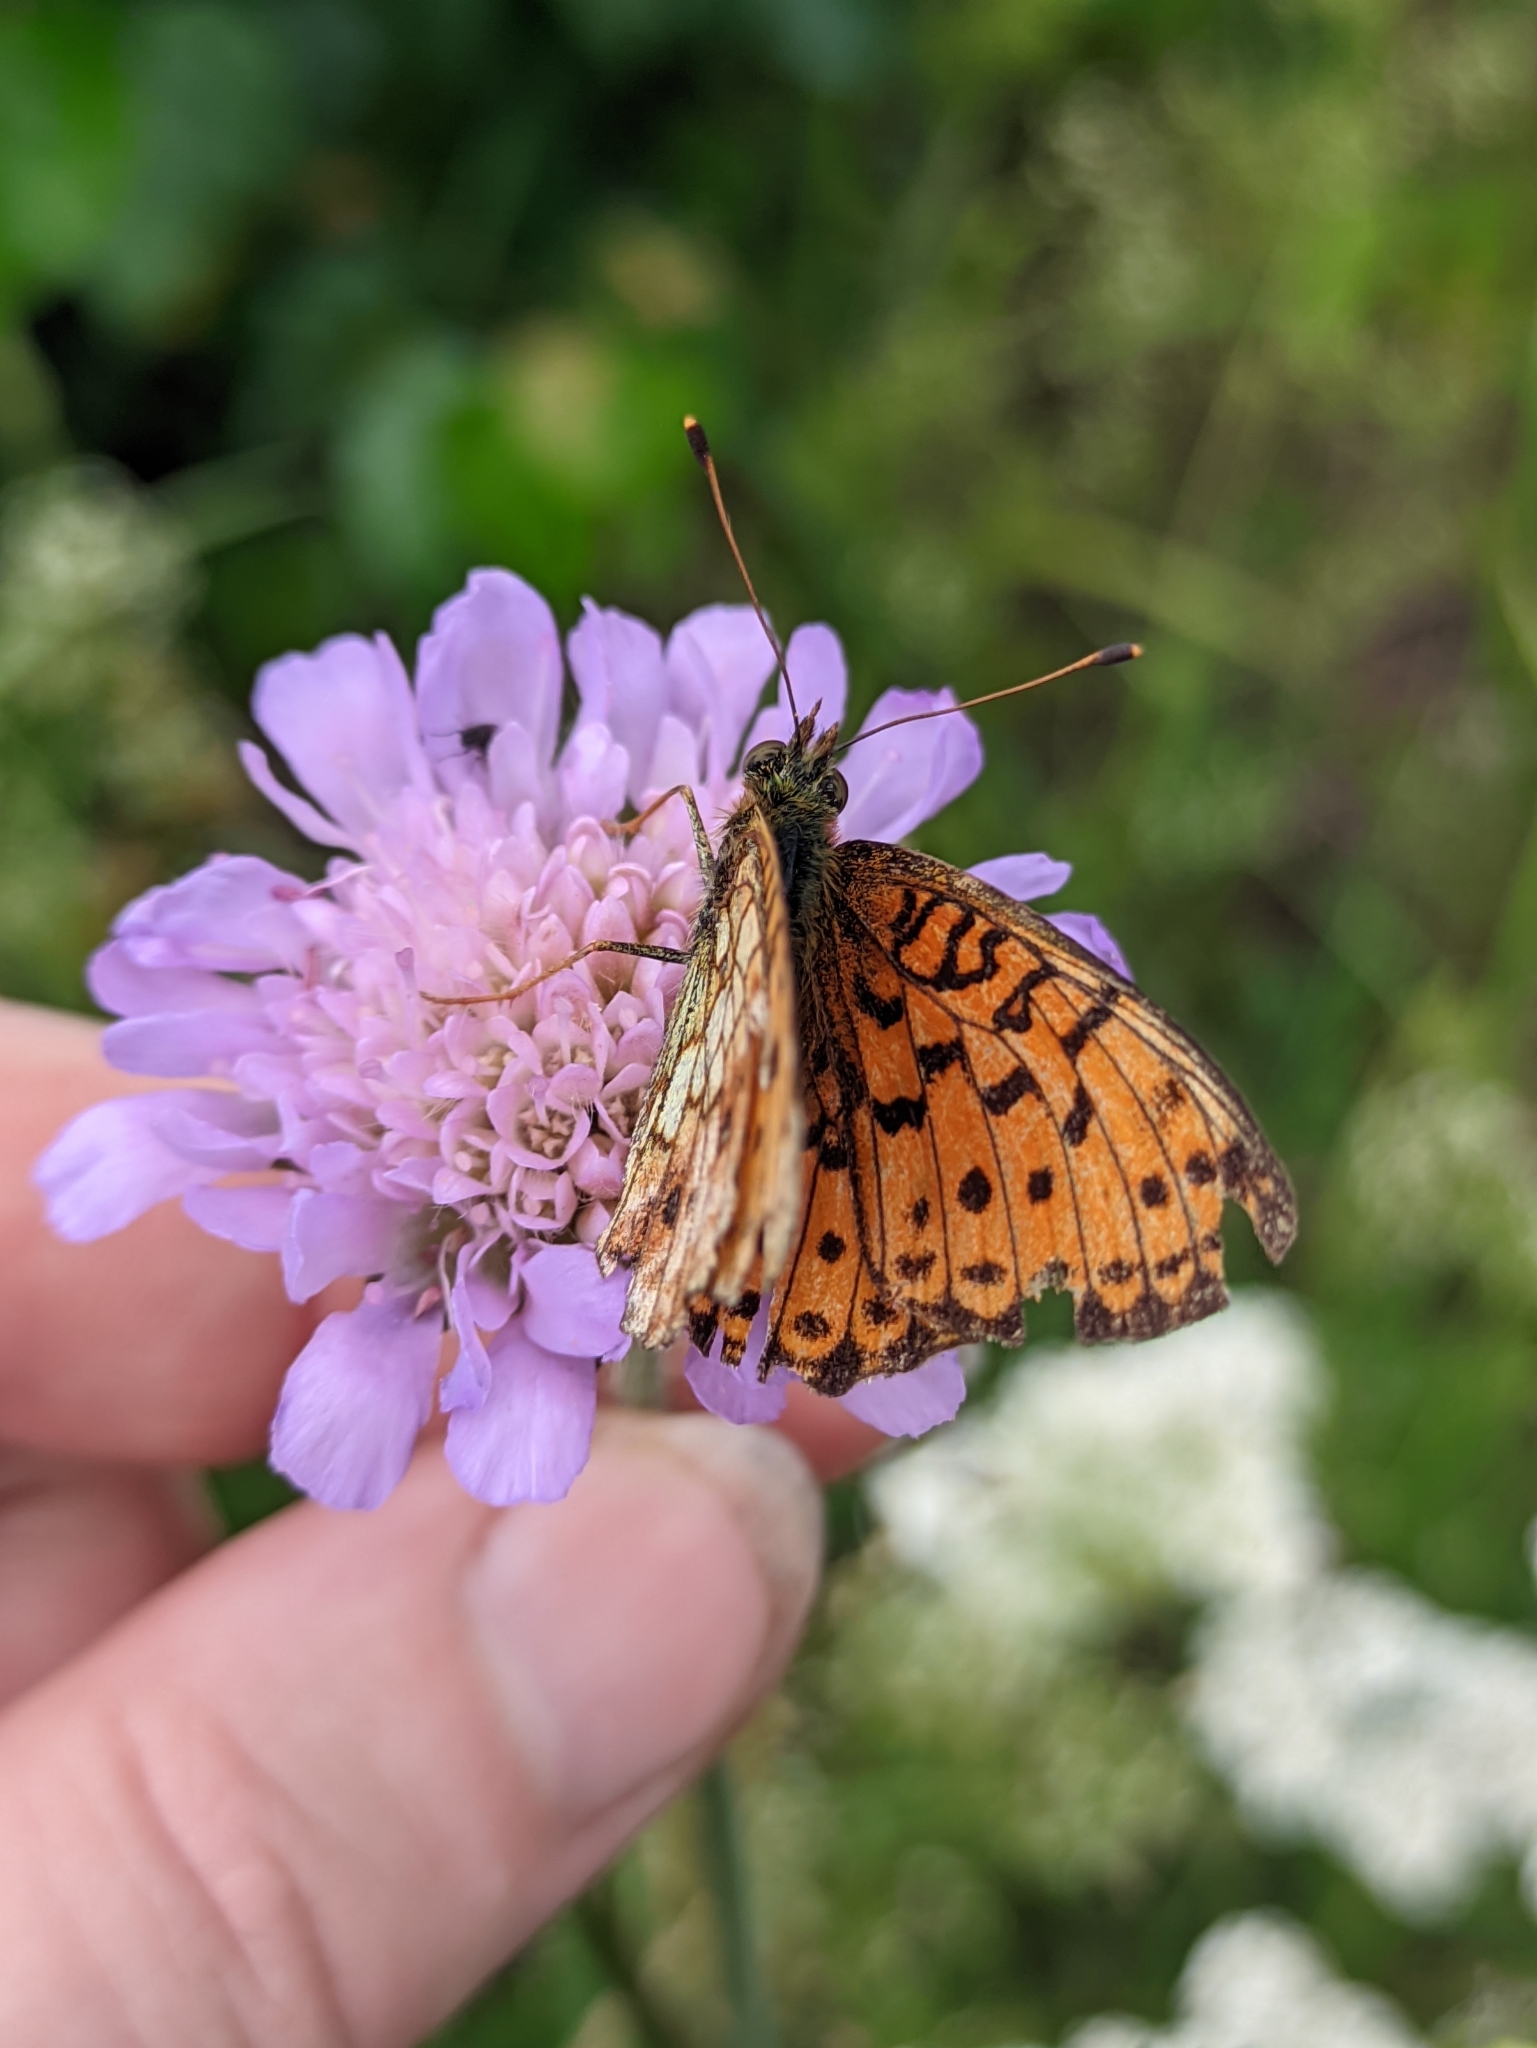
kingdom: Animalia
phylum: Arthropoda
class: Insecta
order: Lepidoptera
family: Nymphalidae
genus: Brenthis
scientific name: Brenthis ino
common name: Lesser marbled fritillary
